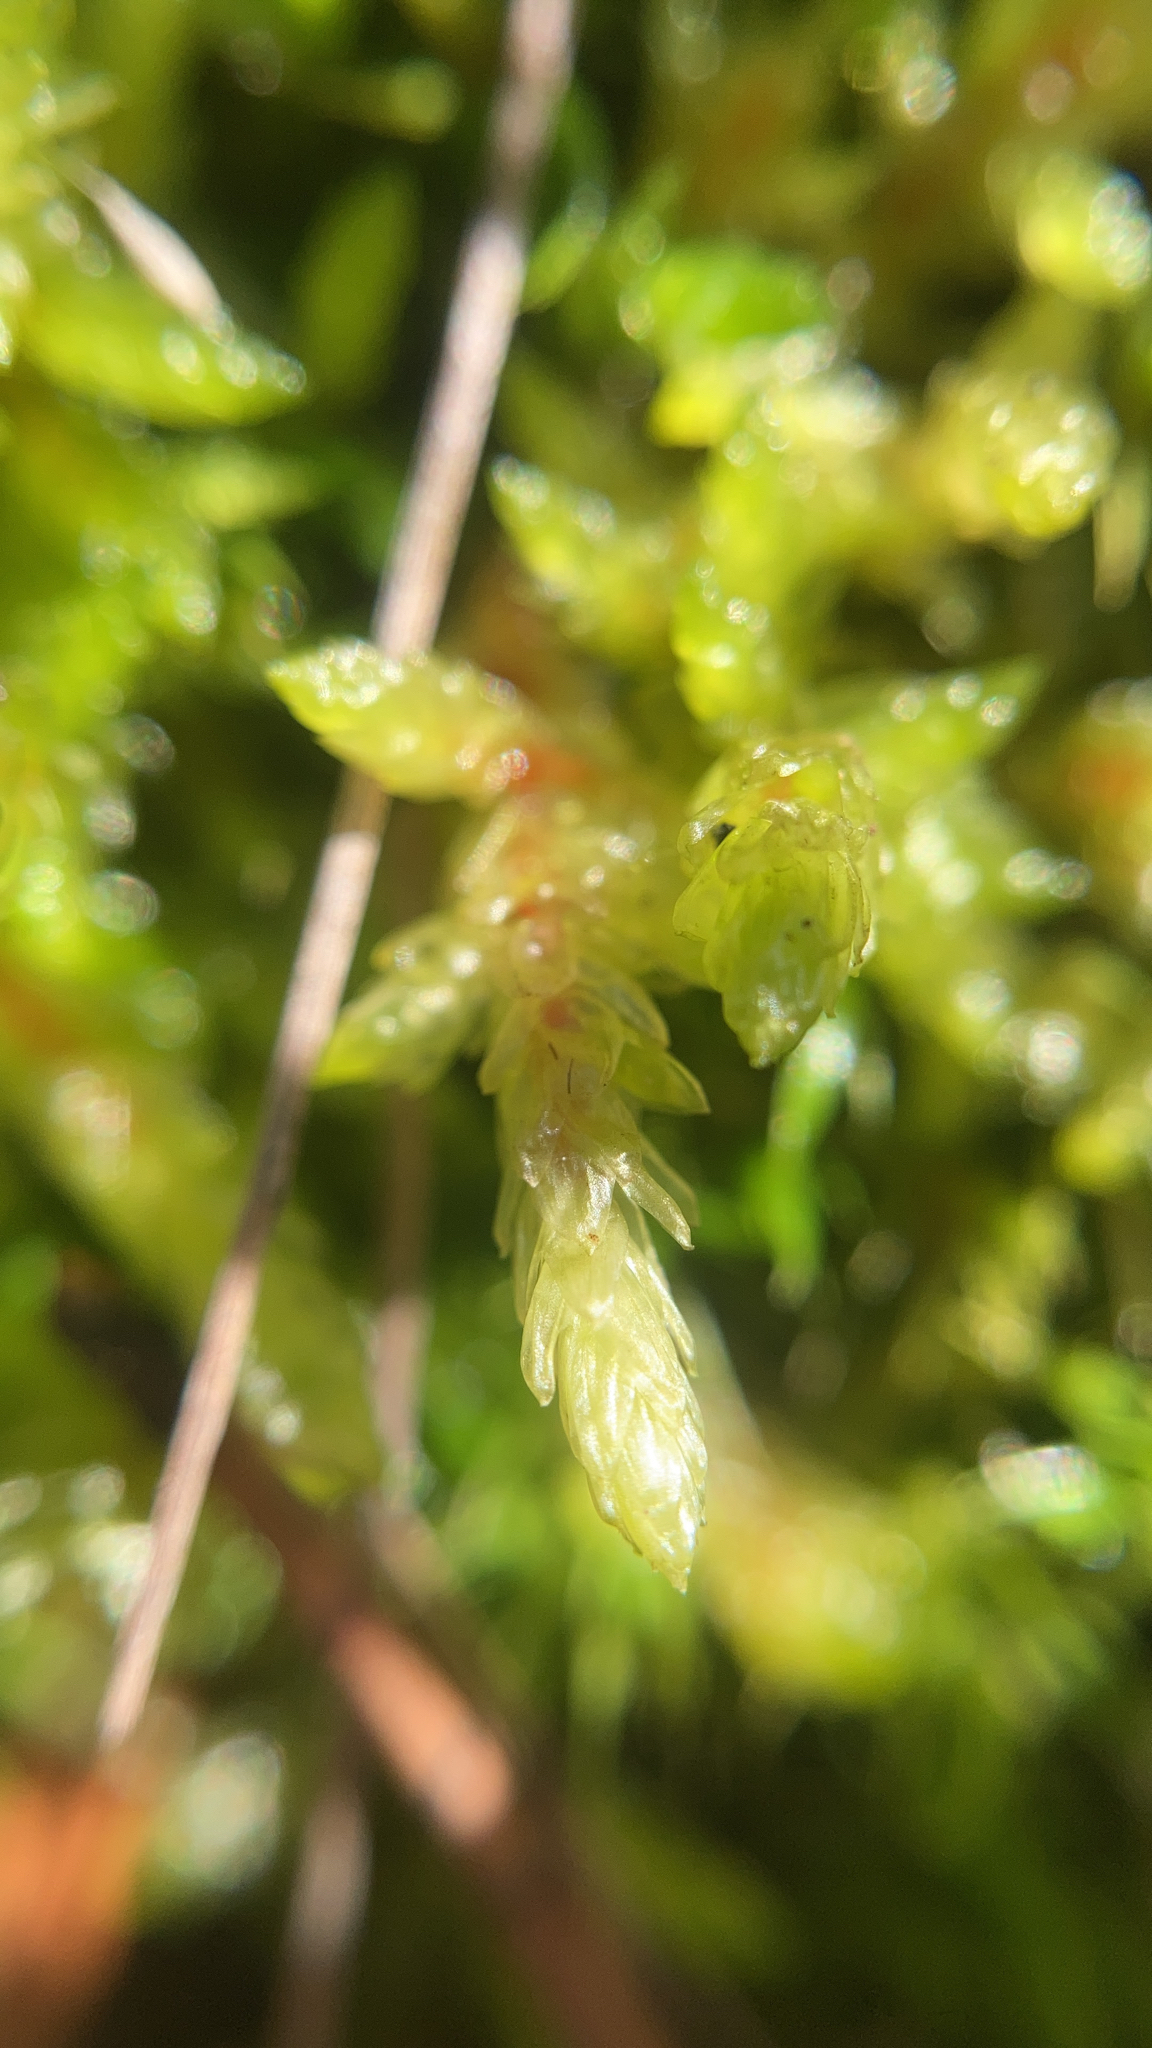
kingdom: Plantae
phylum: Bryophyta
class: Bryopsida
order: Hypnales
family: Hylocomiaceae
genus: Pleurozium
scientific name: Pleurozium schreberi
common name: Red-stemmed feather moss
